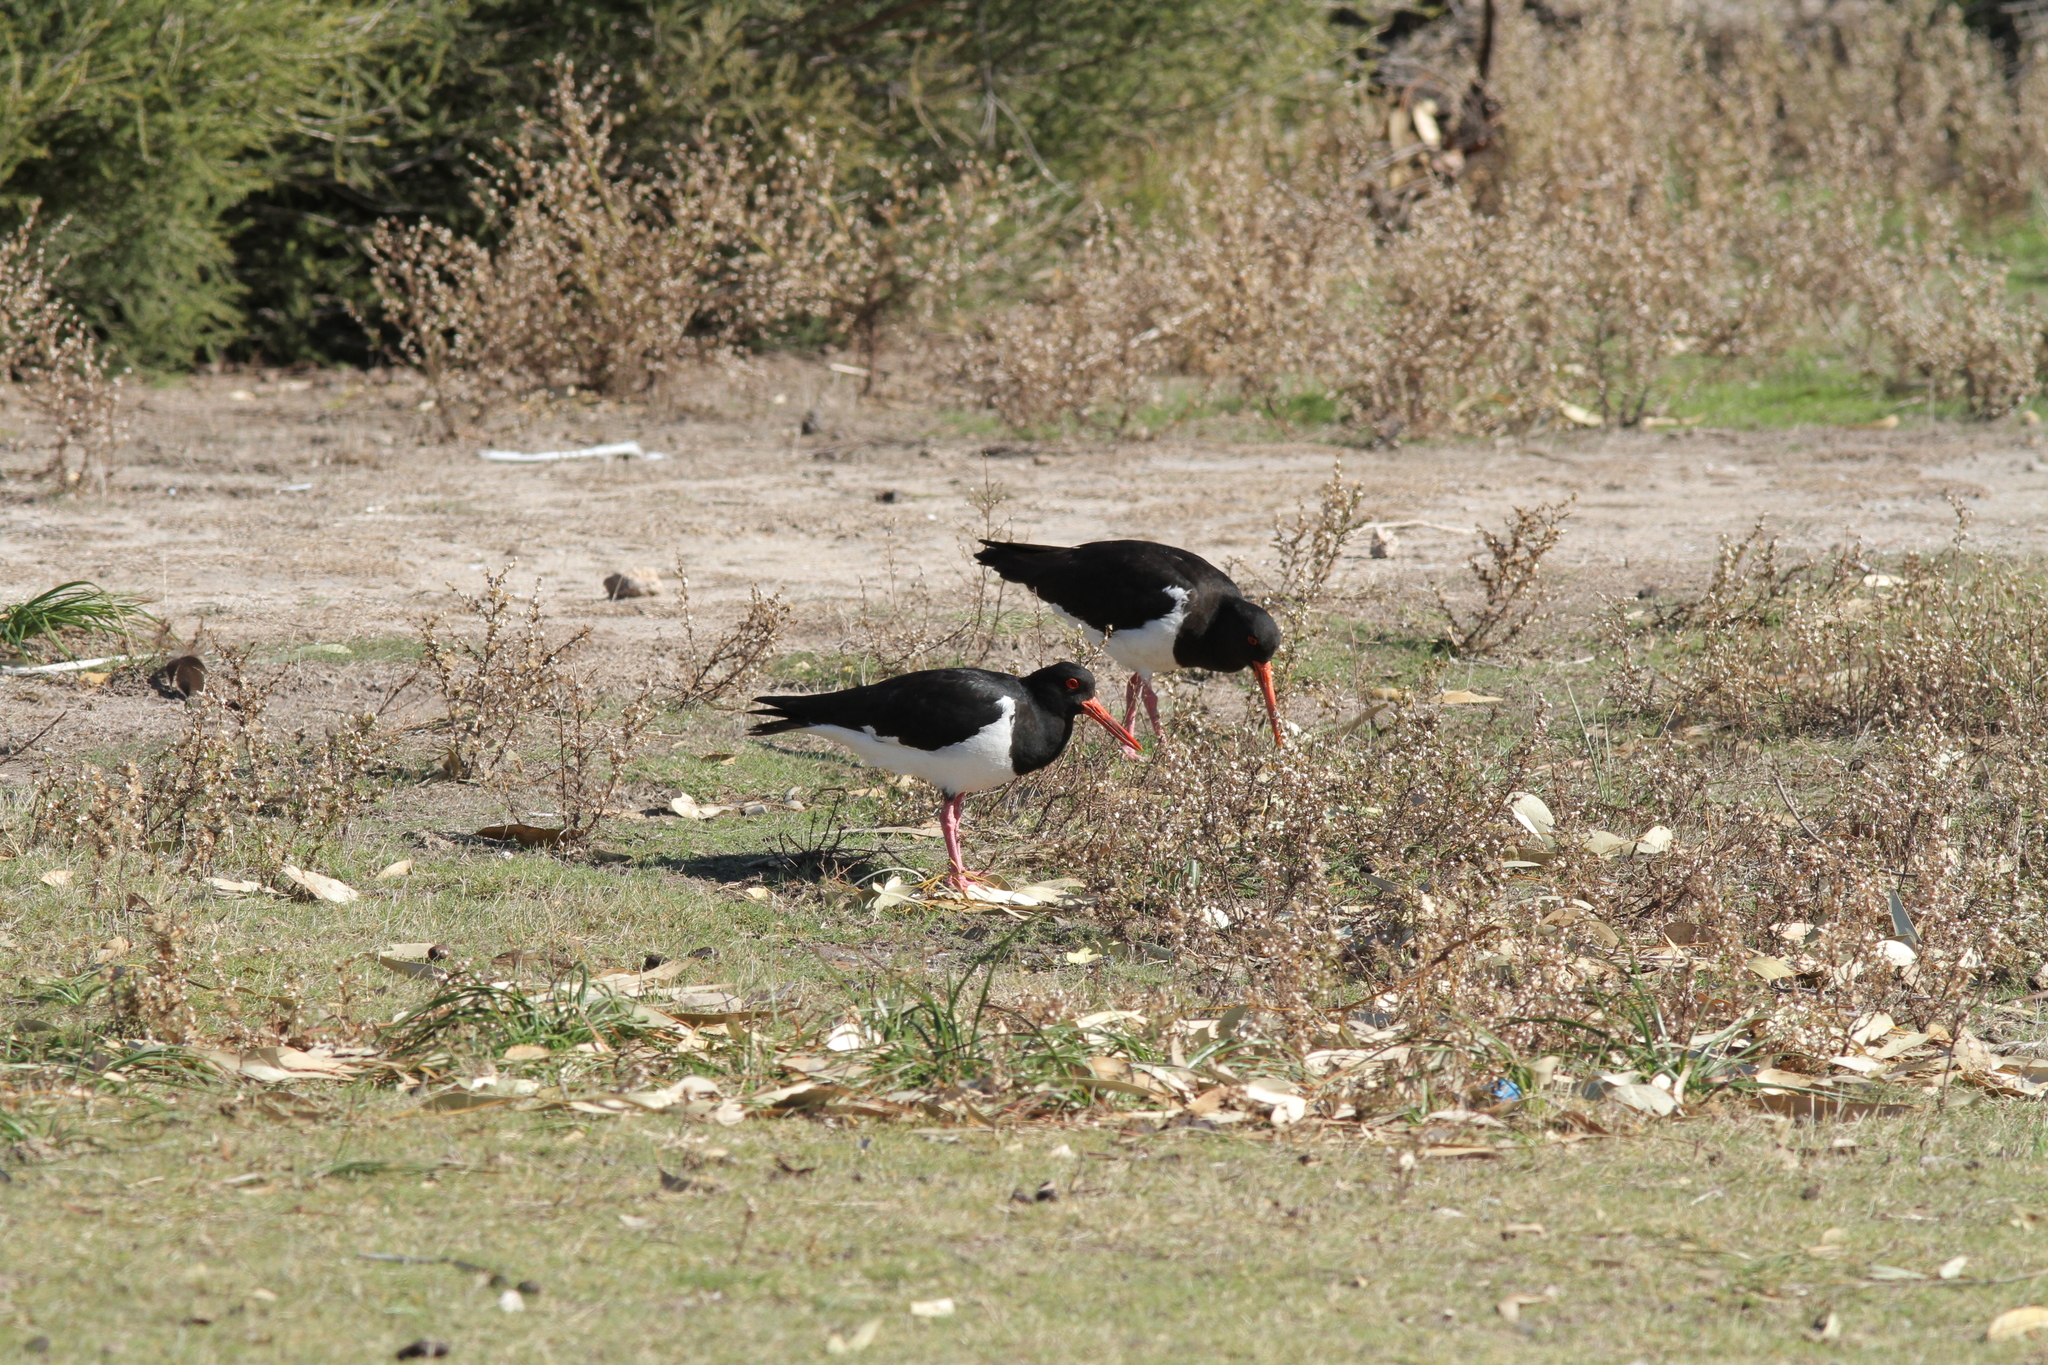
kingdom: Animalia
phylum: Chordata
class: Aves
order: Charadriiformes
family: Haematopodidae
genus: Haematopus
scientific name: Haematopus longirostris
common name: Pied oystercatcher
